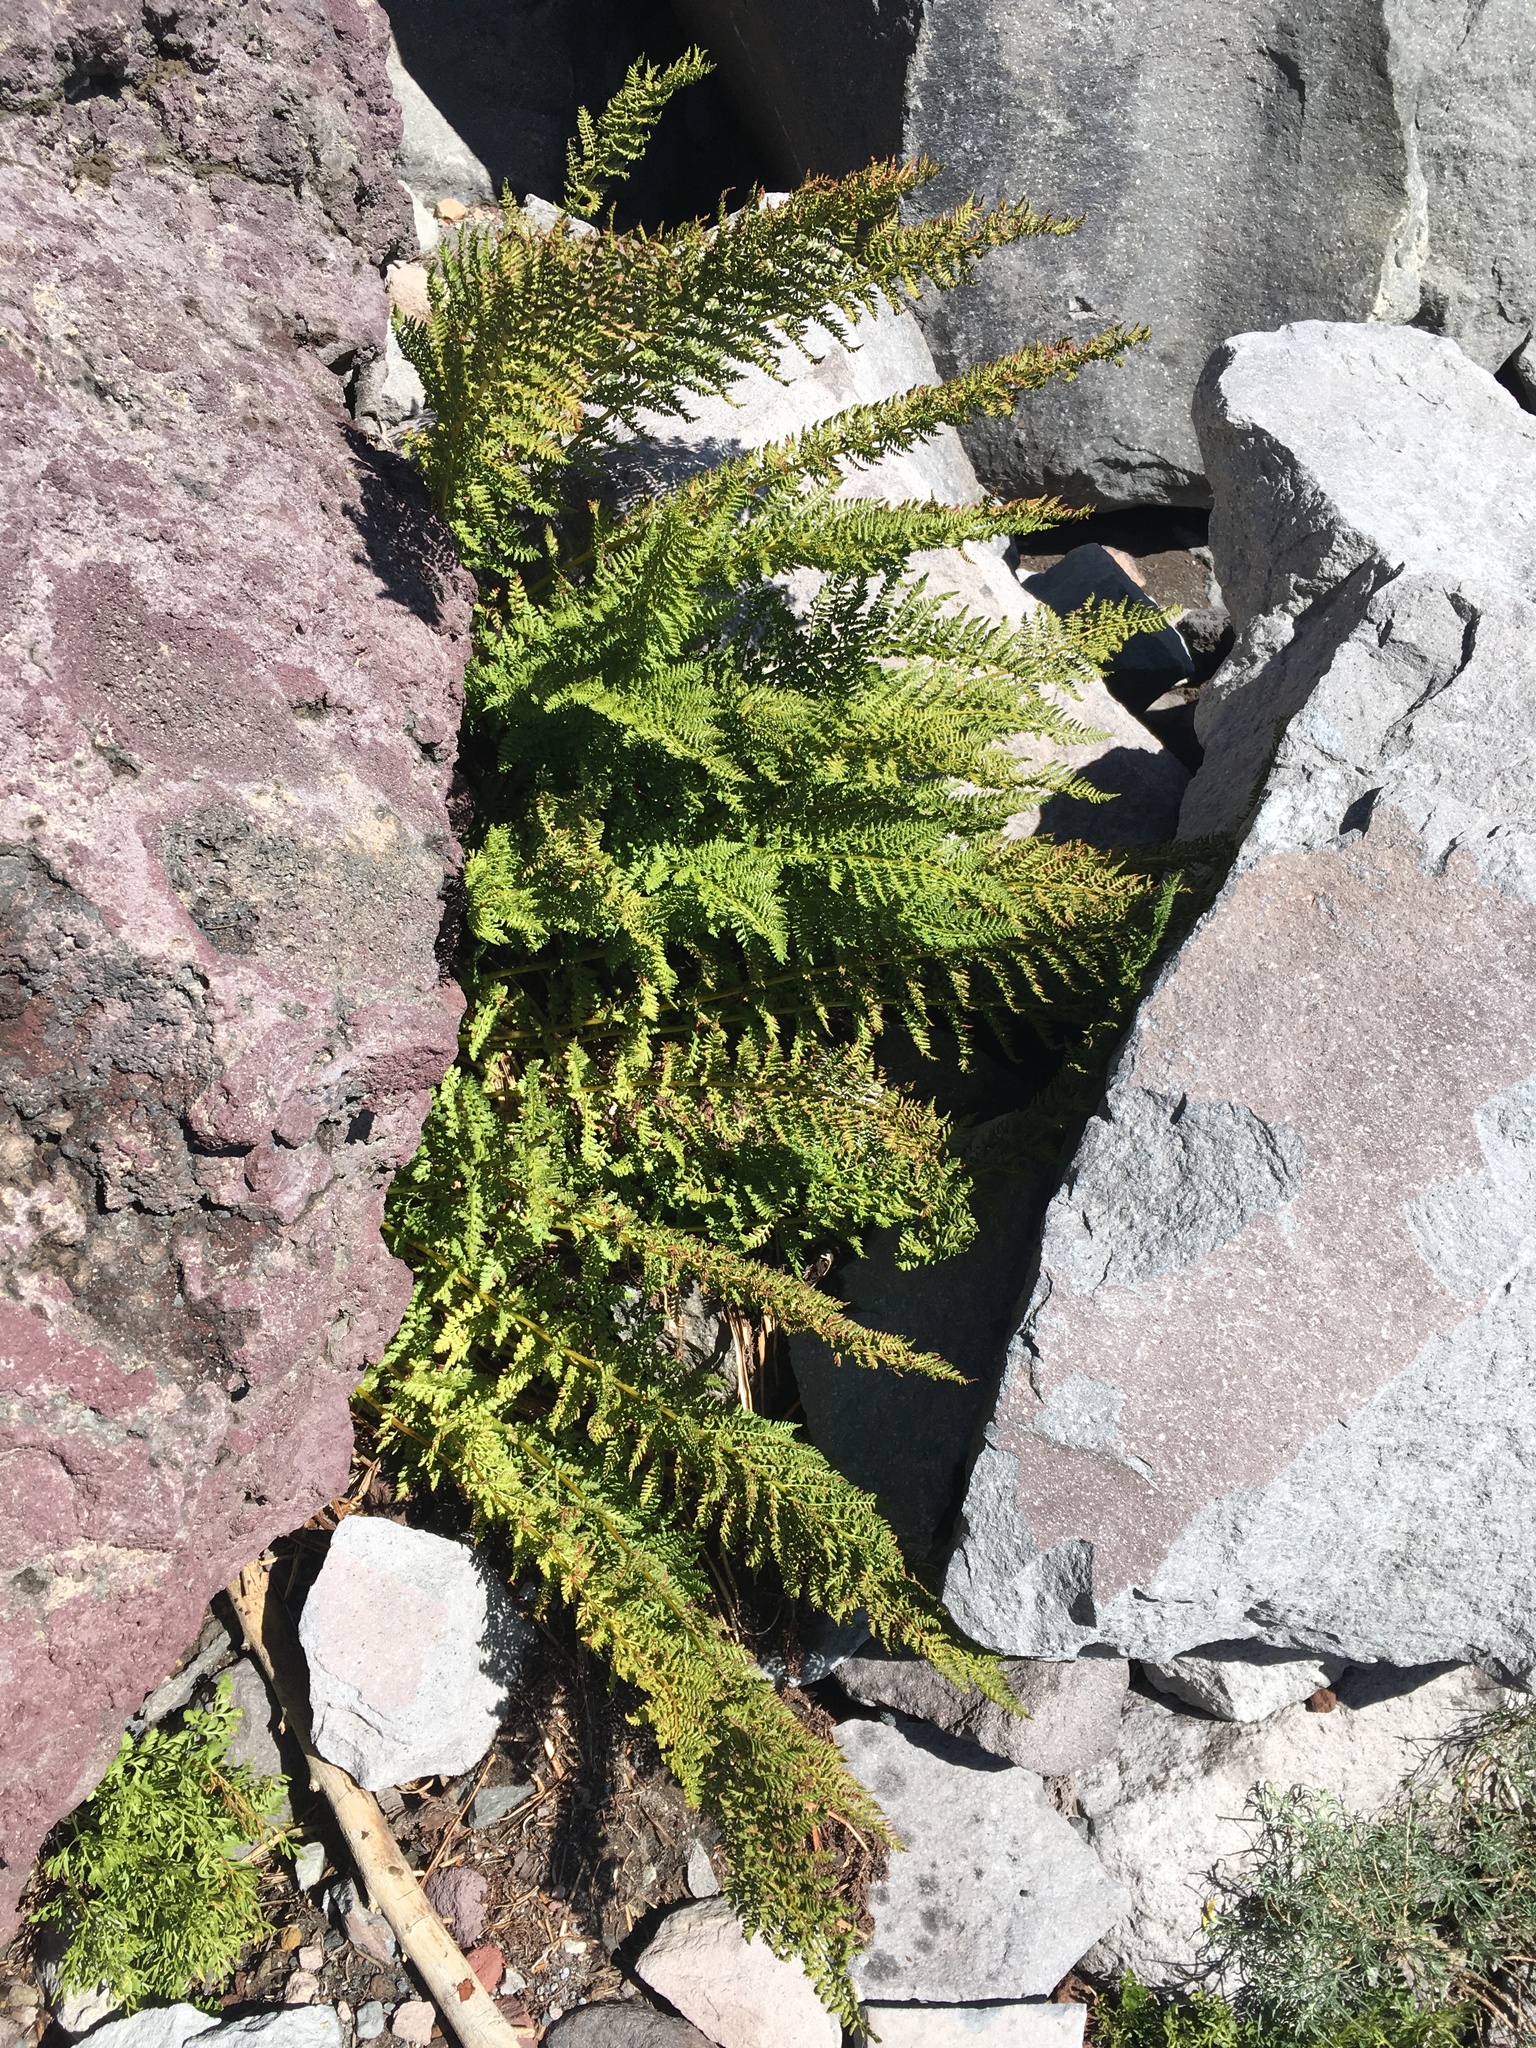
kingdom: Plantae
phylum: Tracheophyta
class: Polypodiopsida
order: Polypodiales
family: Athyriaceae
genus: Athyrium
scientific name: Athyrium americanum
